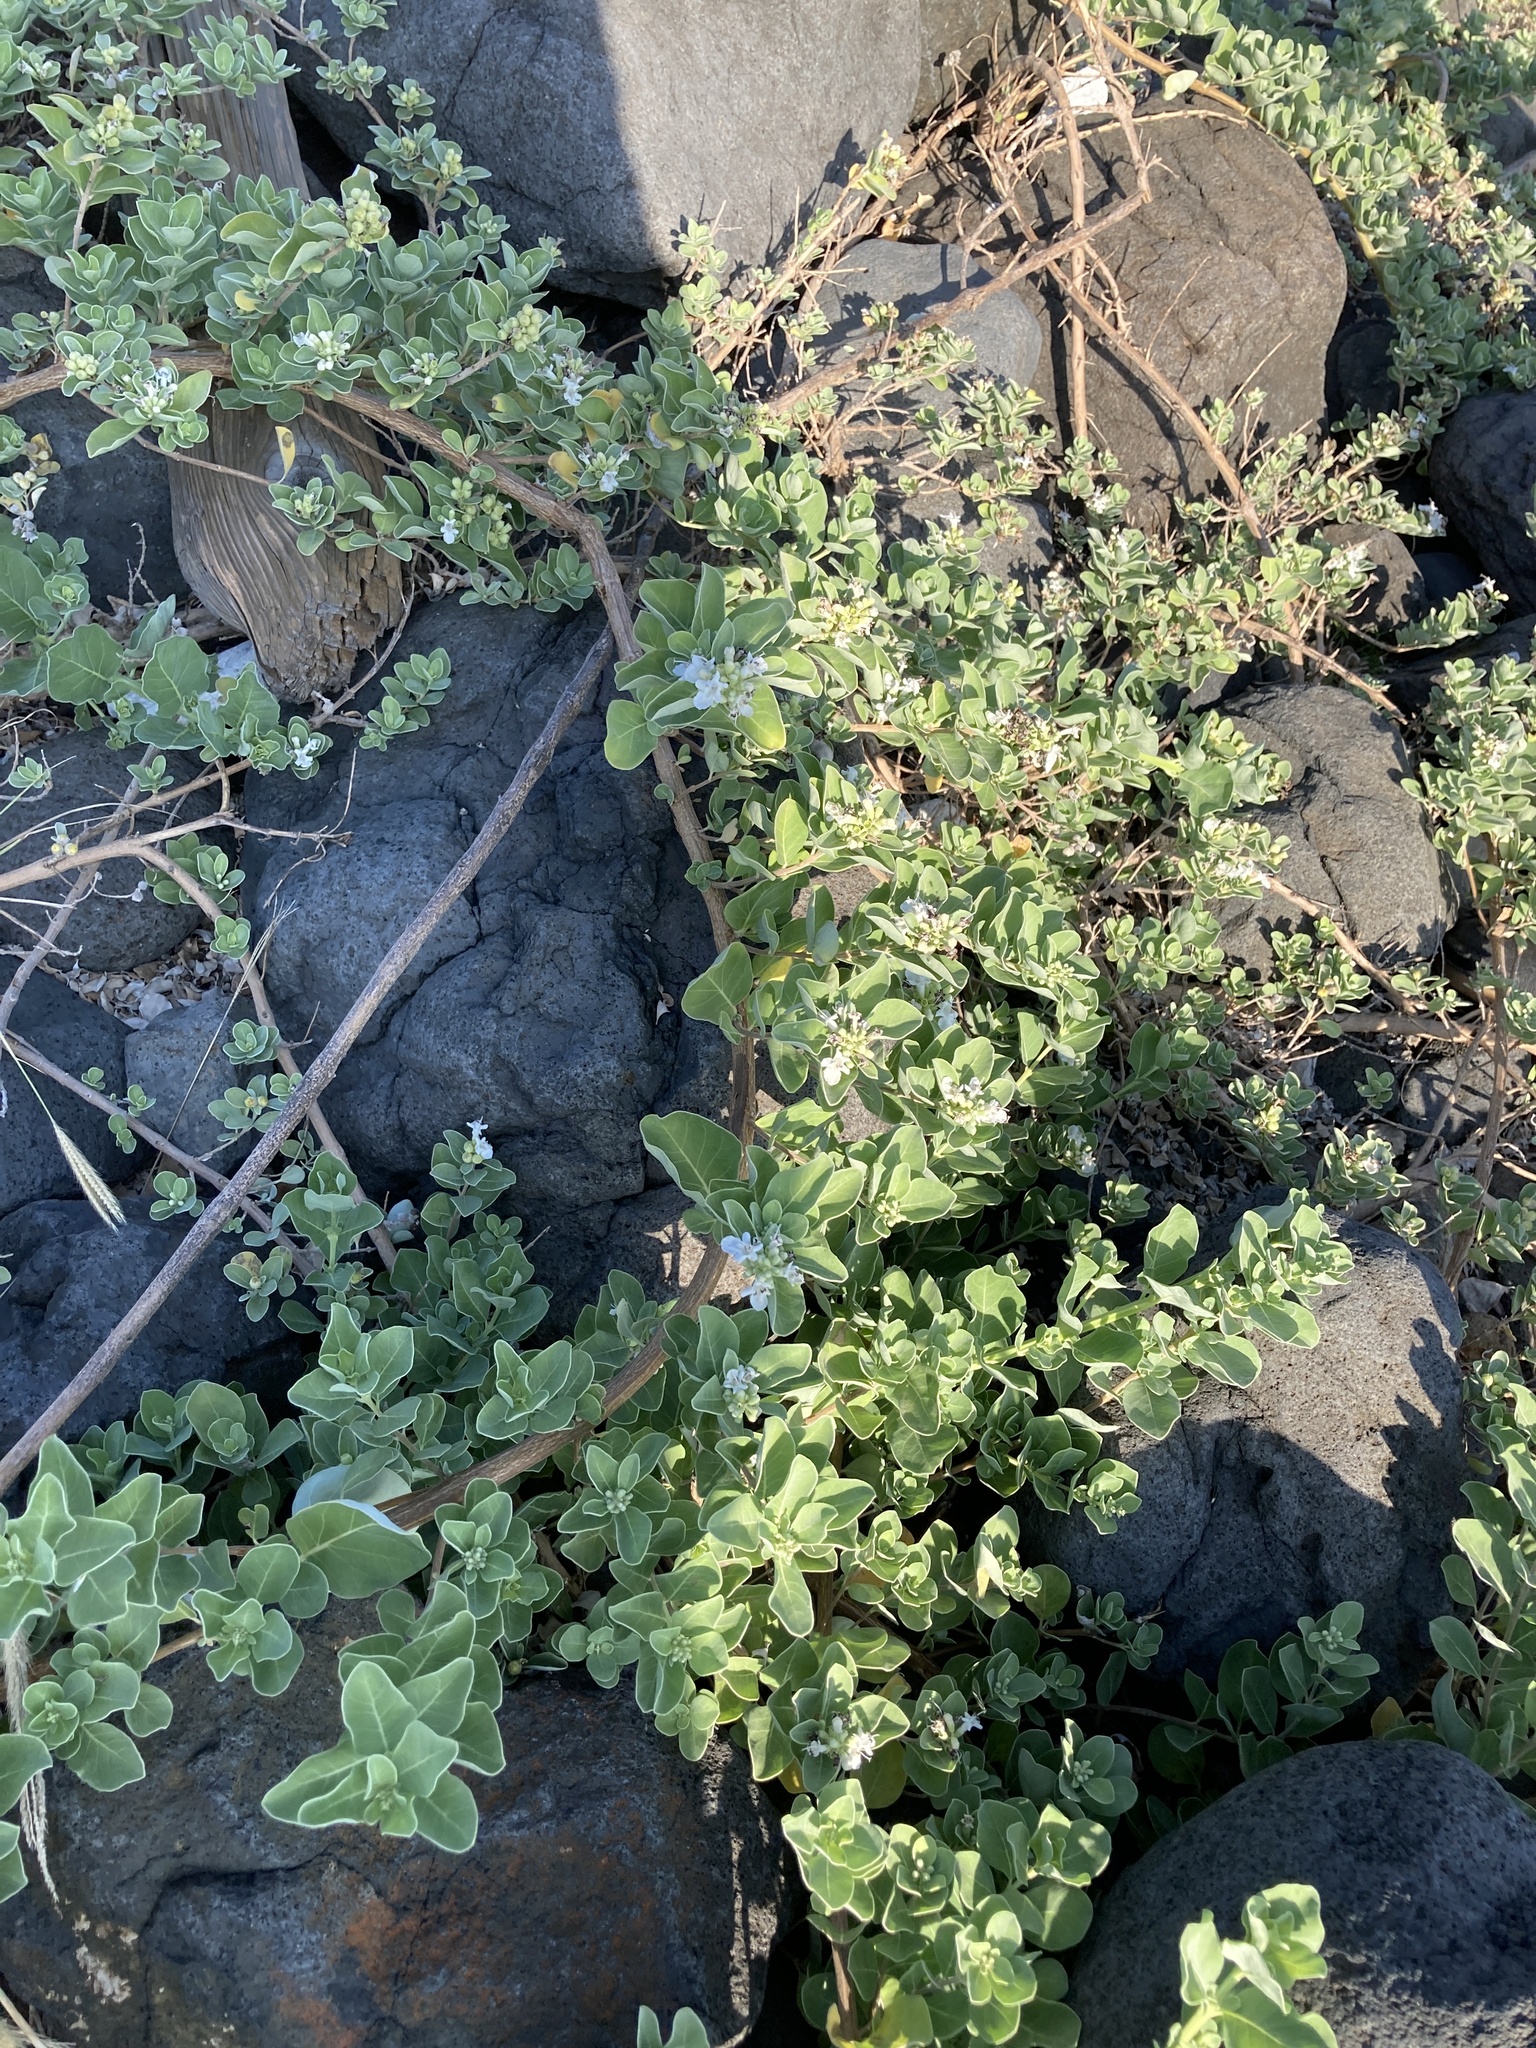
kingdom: Plantae
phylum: Tracheophyta
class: Magnoliopsida
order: Lamiales
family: Lamiaceae
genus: Vitex
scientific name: Vitex rotundifolia
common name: Beach vitex
